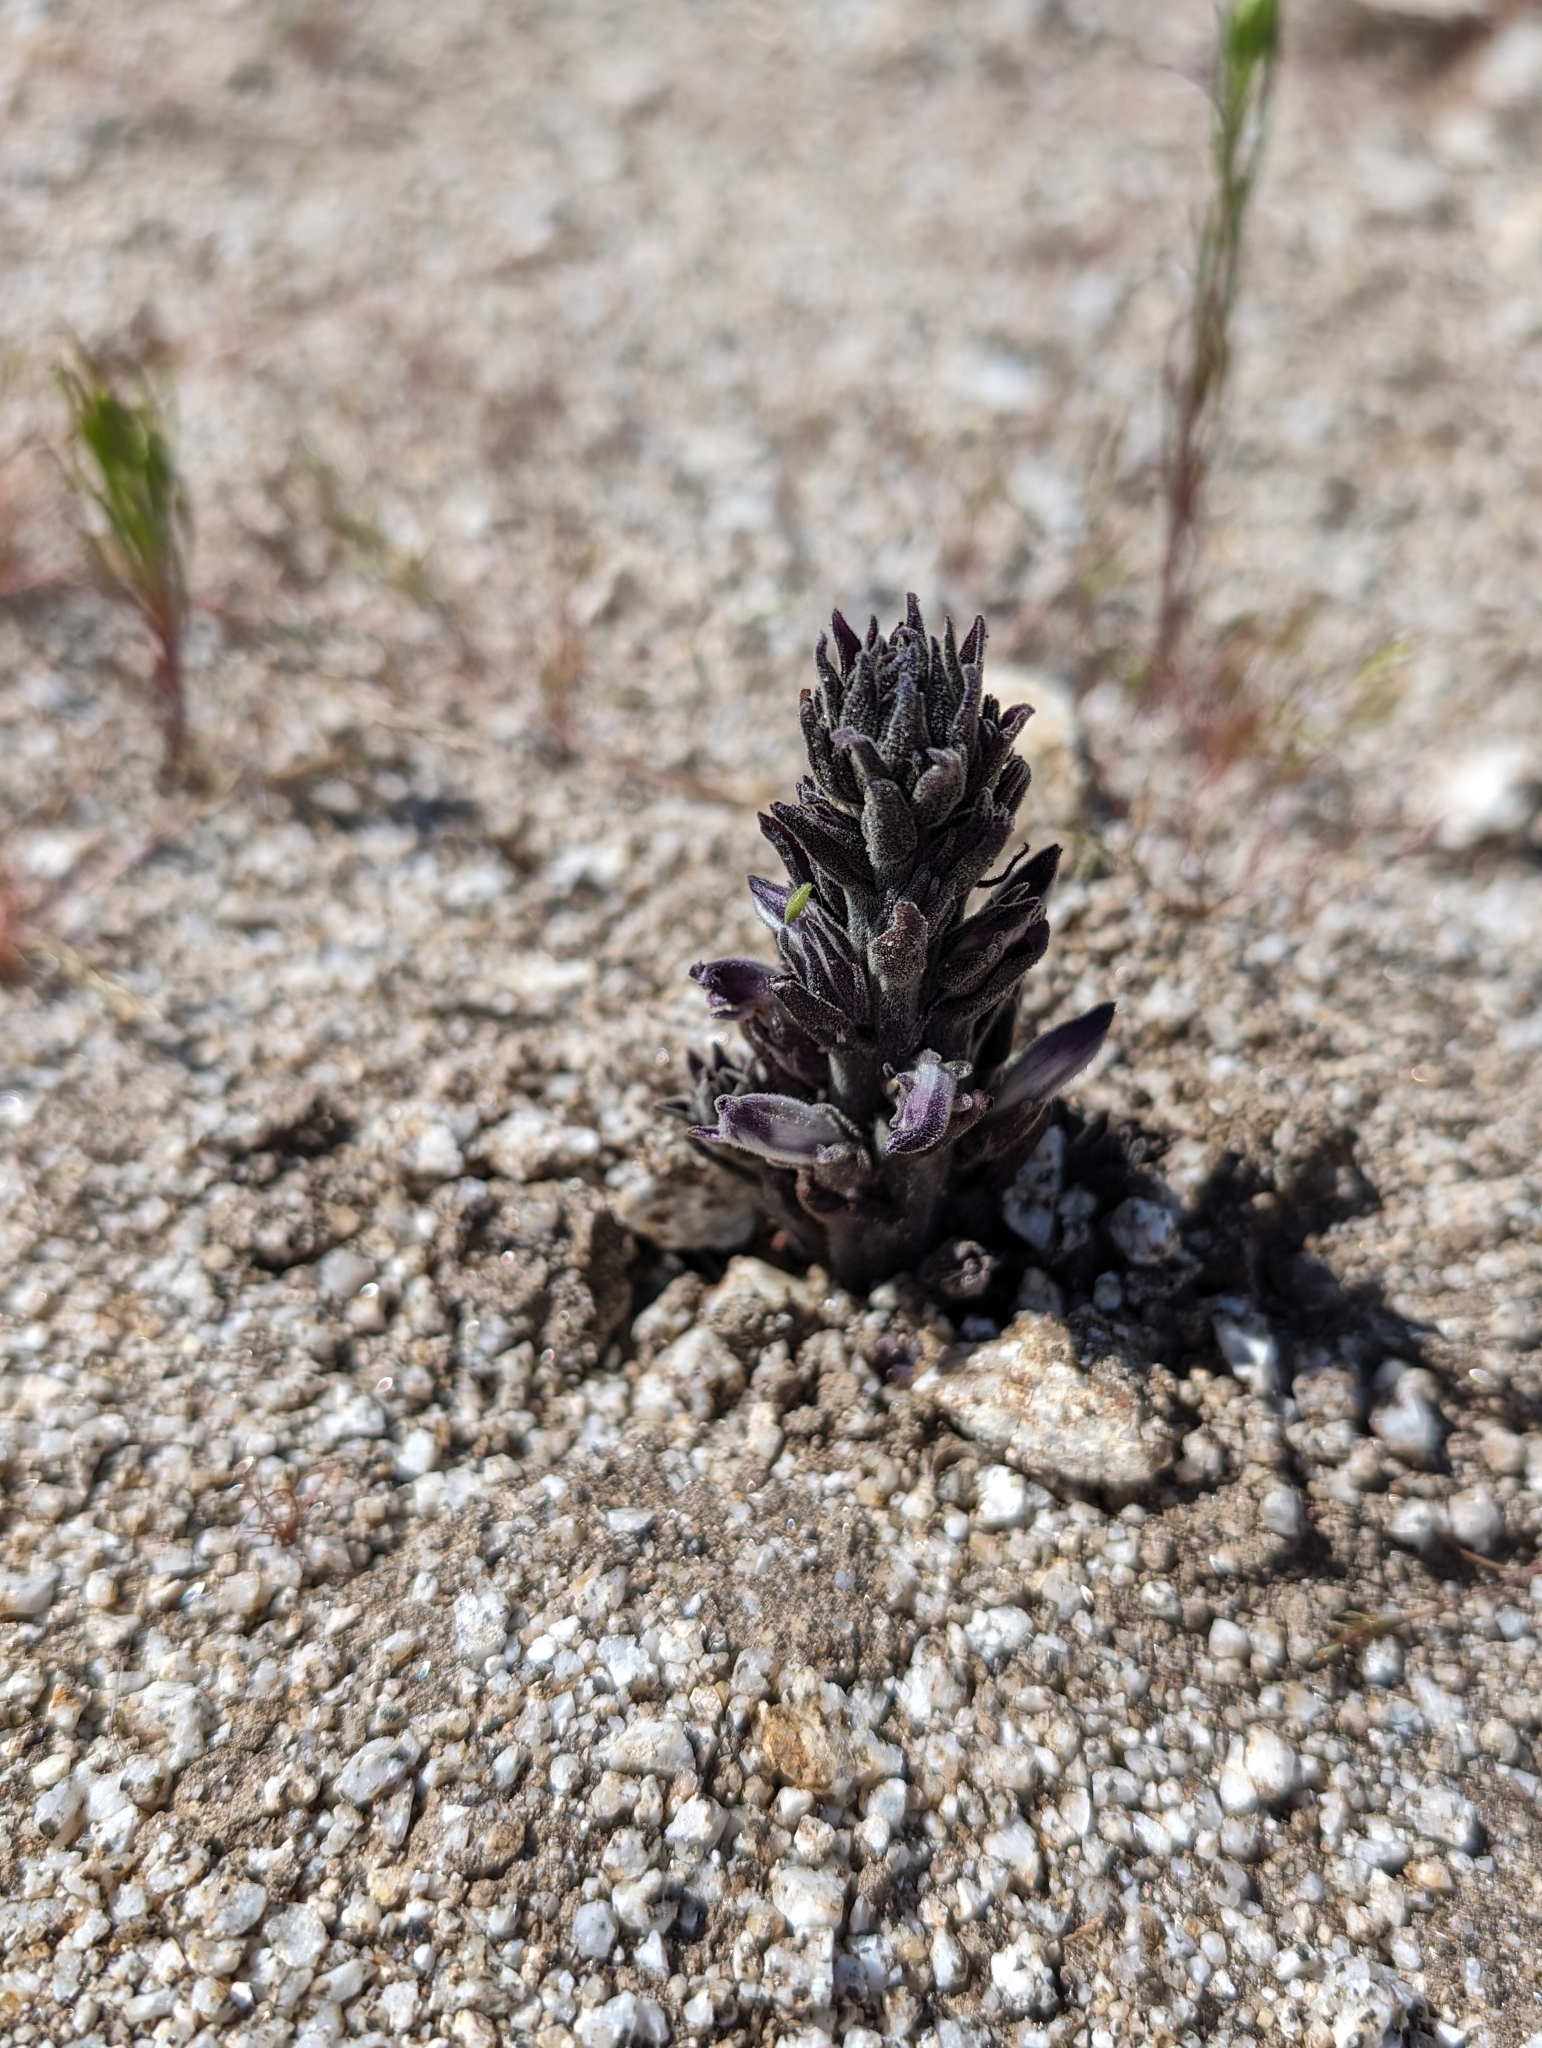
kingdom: Plantae
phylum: Tracheophyta
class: Magnoliopsida
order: Lamiales
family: Orobanchaceae
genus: Aphyllon
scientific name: Aphyllon cooperi
